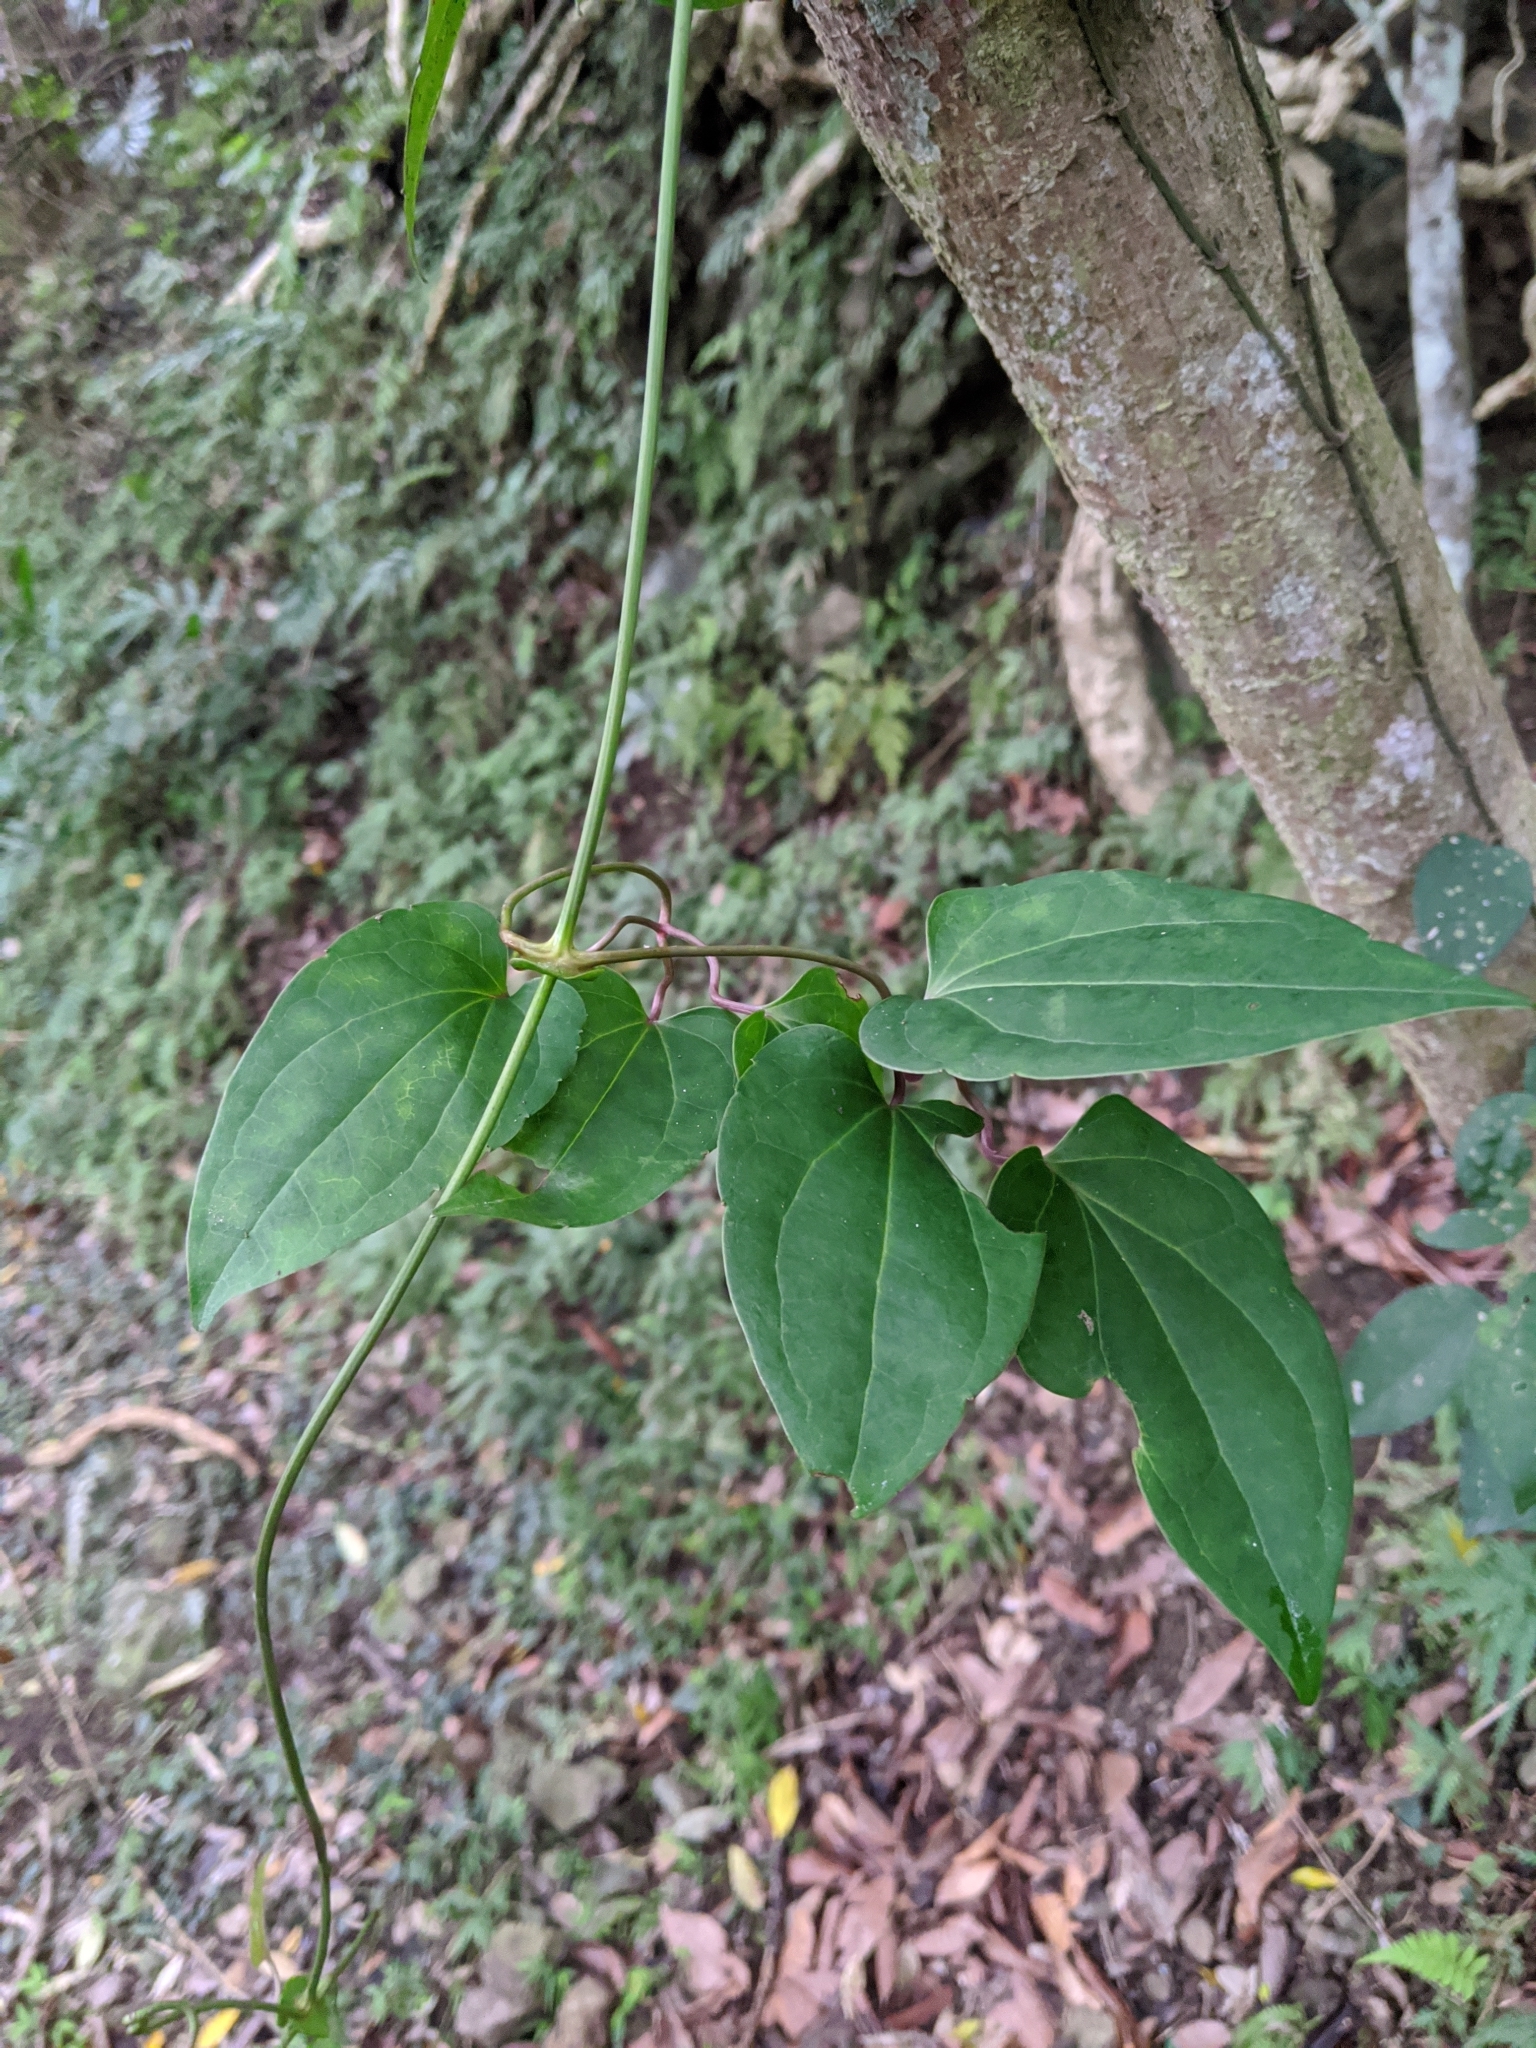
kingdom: Plantae
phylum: Tracheophyta
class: Magnoliopsida
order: Ranunculales
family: Ranunculaceae
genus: Clematis
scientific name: Clematis tashiroi
